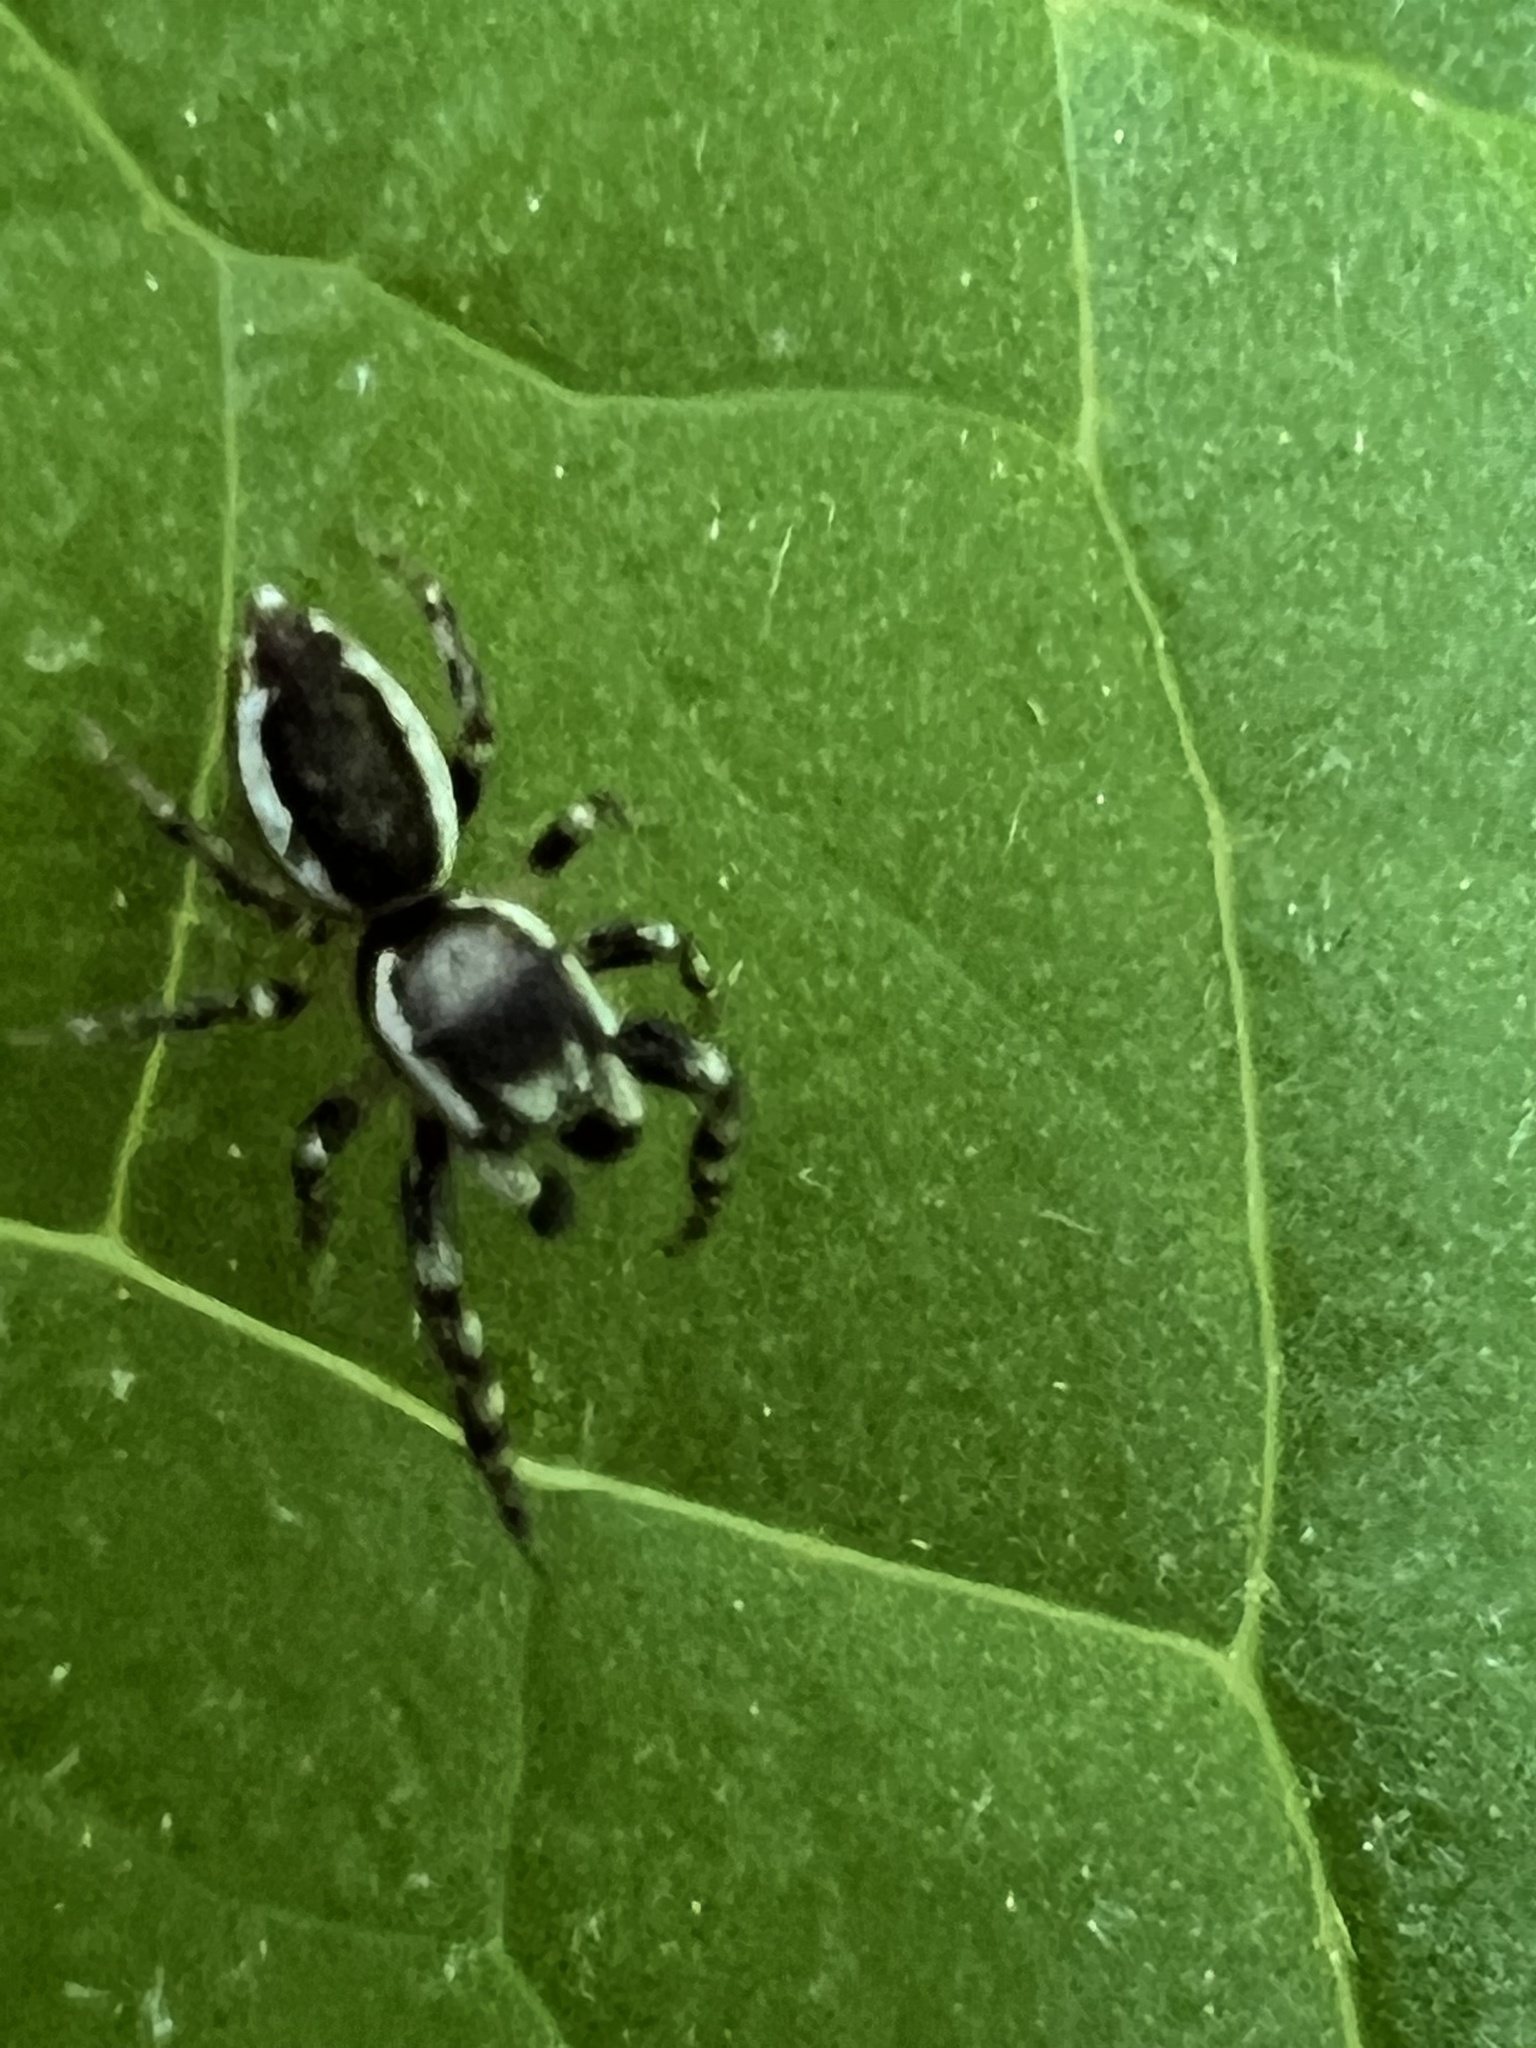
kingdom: Animalia
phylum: Arthropoda
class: Arachnida
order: Araneae
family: Salticidae
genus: Pelegrina
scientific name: Pelegrina proterva
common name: Common white-cheeked jumping spider
